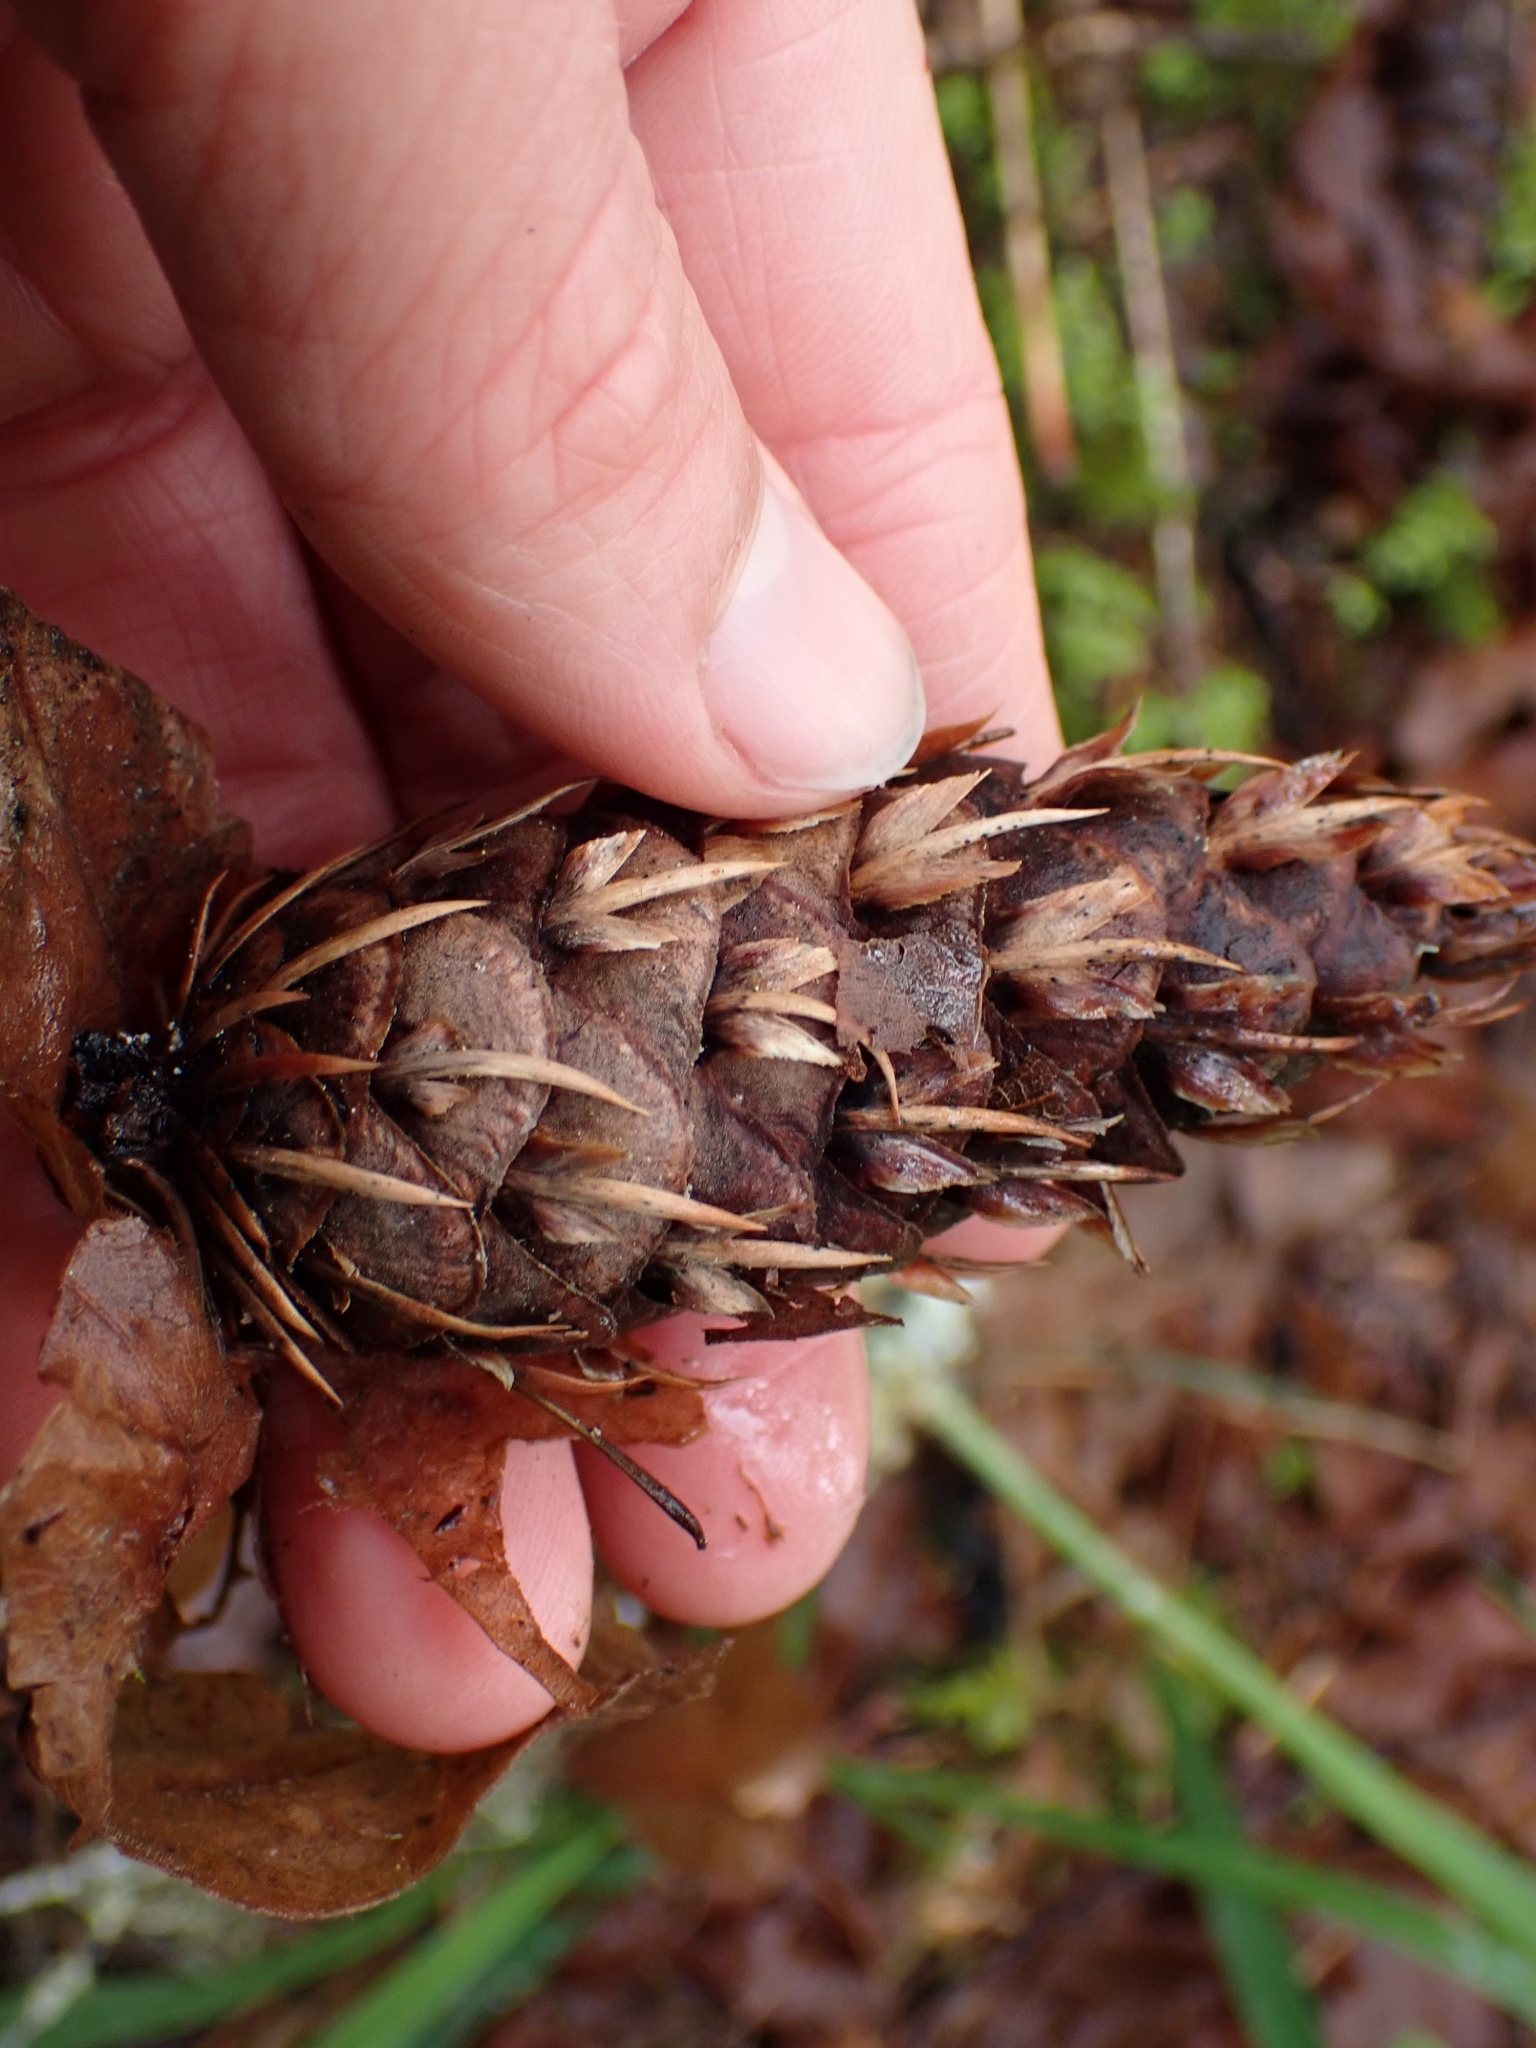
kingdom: Plantae
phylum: Tracheophyta
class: Pinopsida
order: Pinales
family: Pinaceae
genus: Pseudotsuga
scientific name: Pseudotsuga menziesii
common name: Douglas fir
